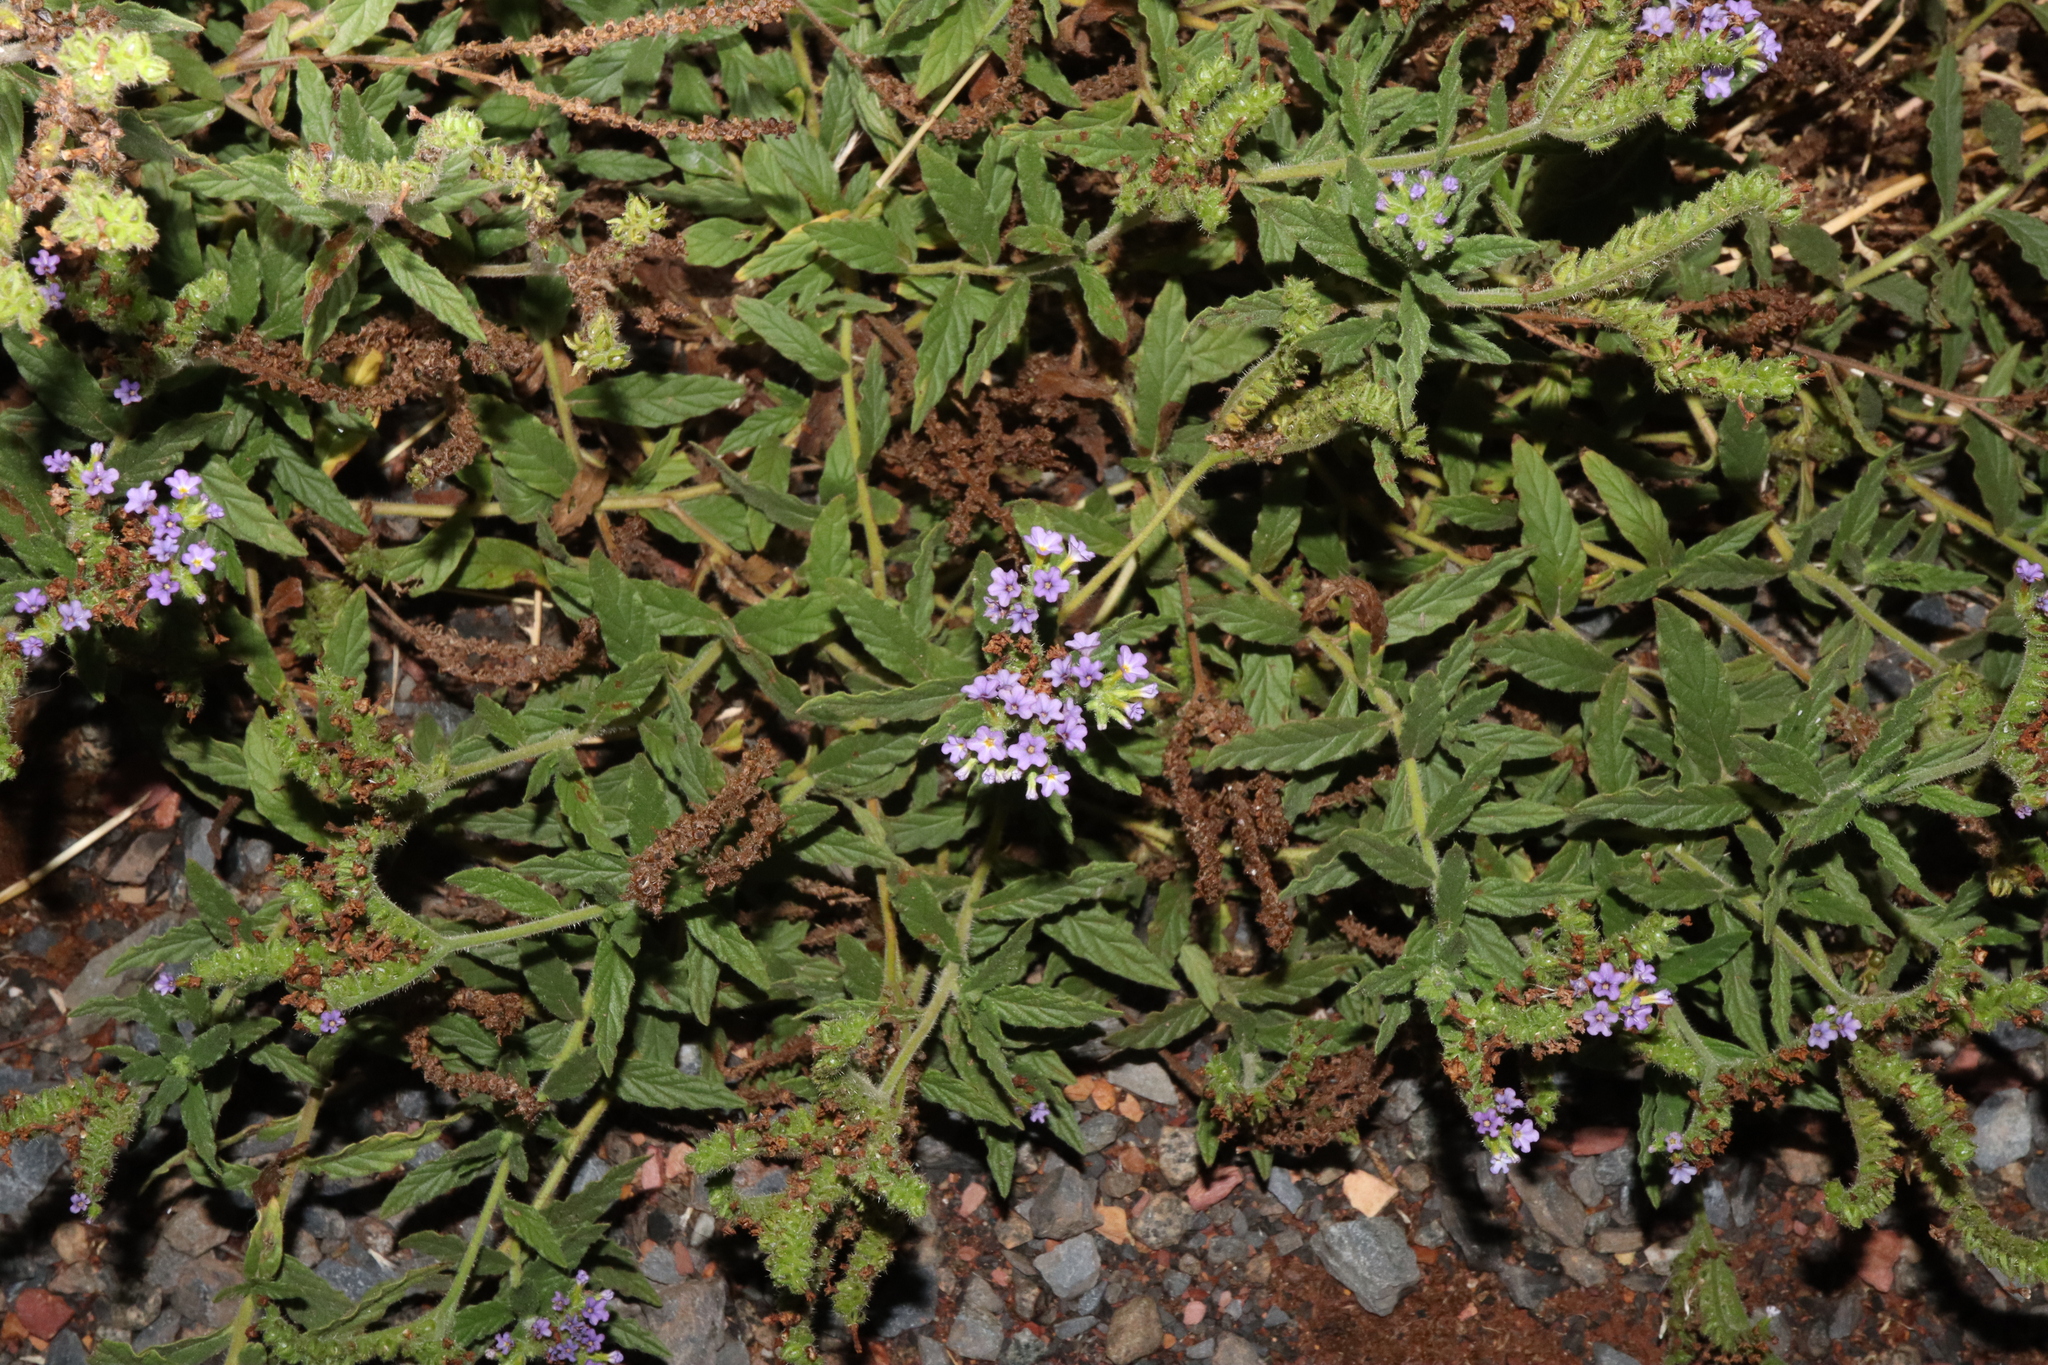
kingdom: Plantae
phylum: Tracheophyta
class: Magnoliopsida
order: Boraginales
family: Heliotropiaceae
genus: Heliotropium
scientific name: Heliotropium amplexicaule
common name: Clasping heliotrope
